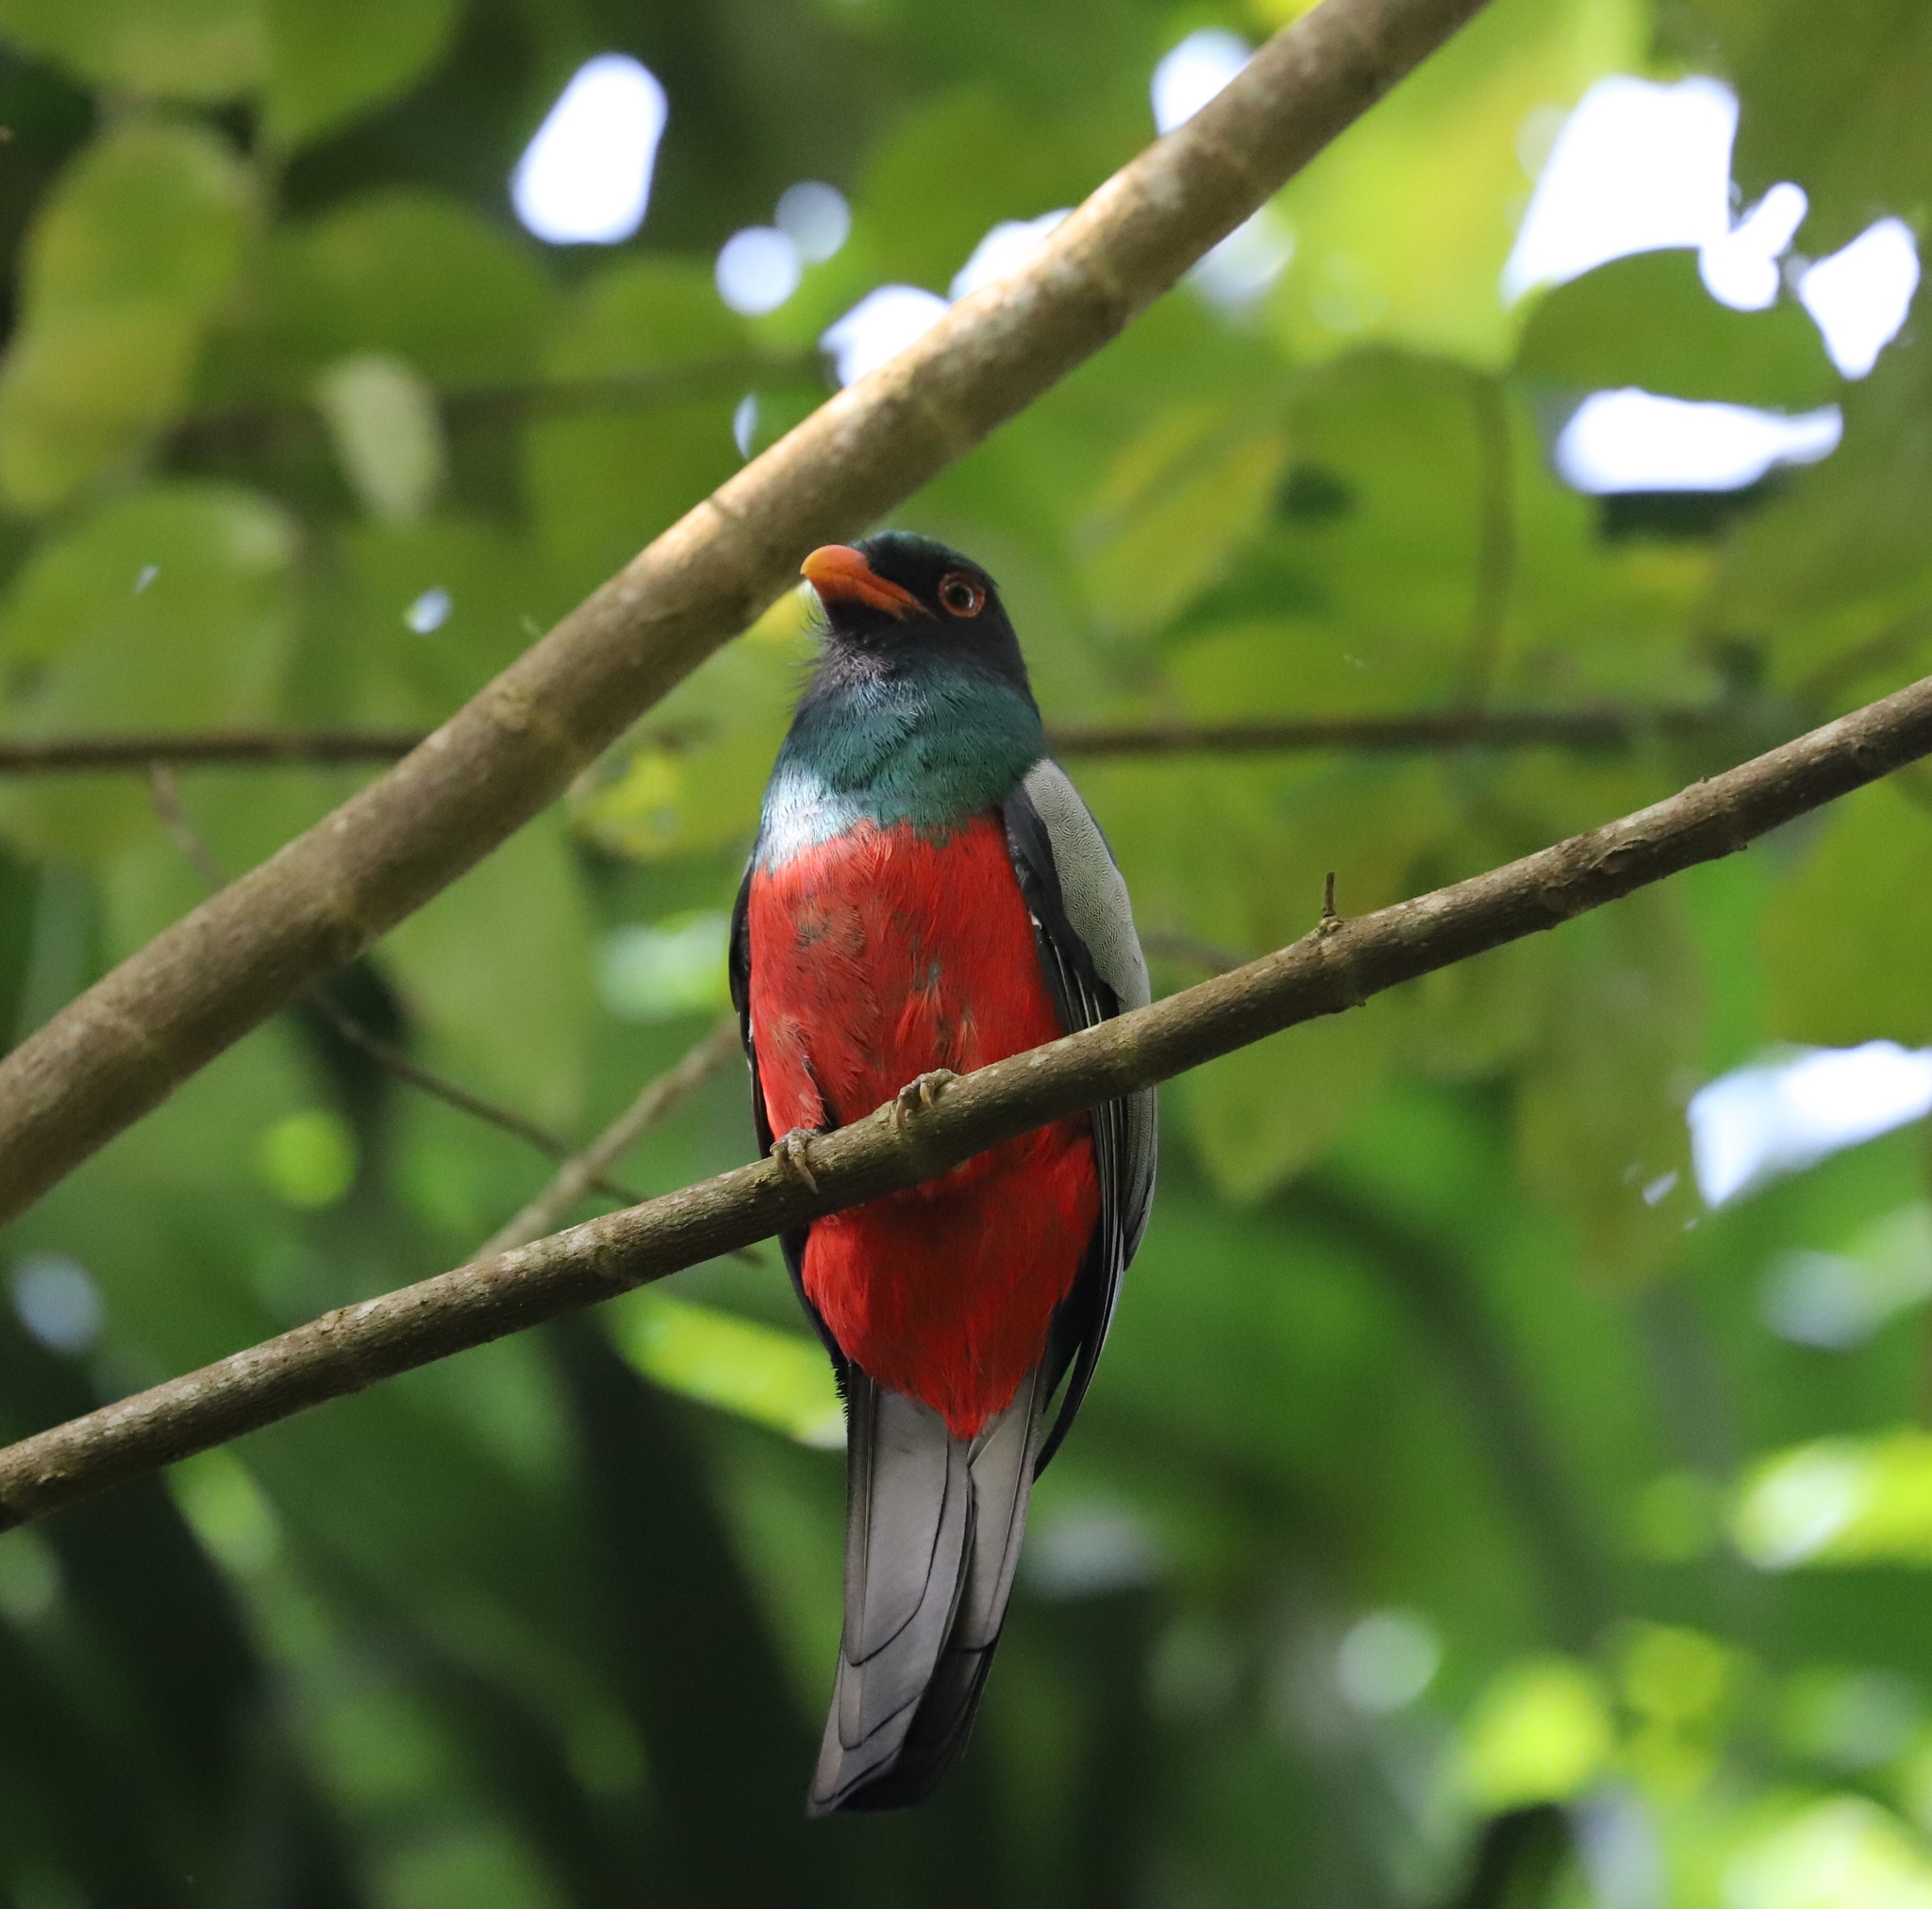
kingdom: Animalia
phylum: Chordata
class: Aves
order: Trogoniformes
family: Trogonidae
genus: Trogon
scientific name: Trogon massena
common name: Slaty-tailed trogon
